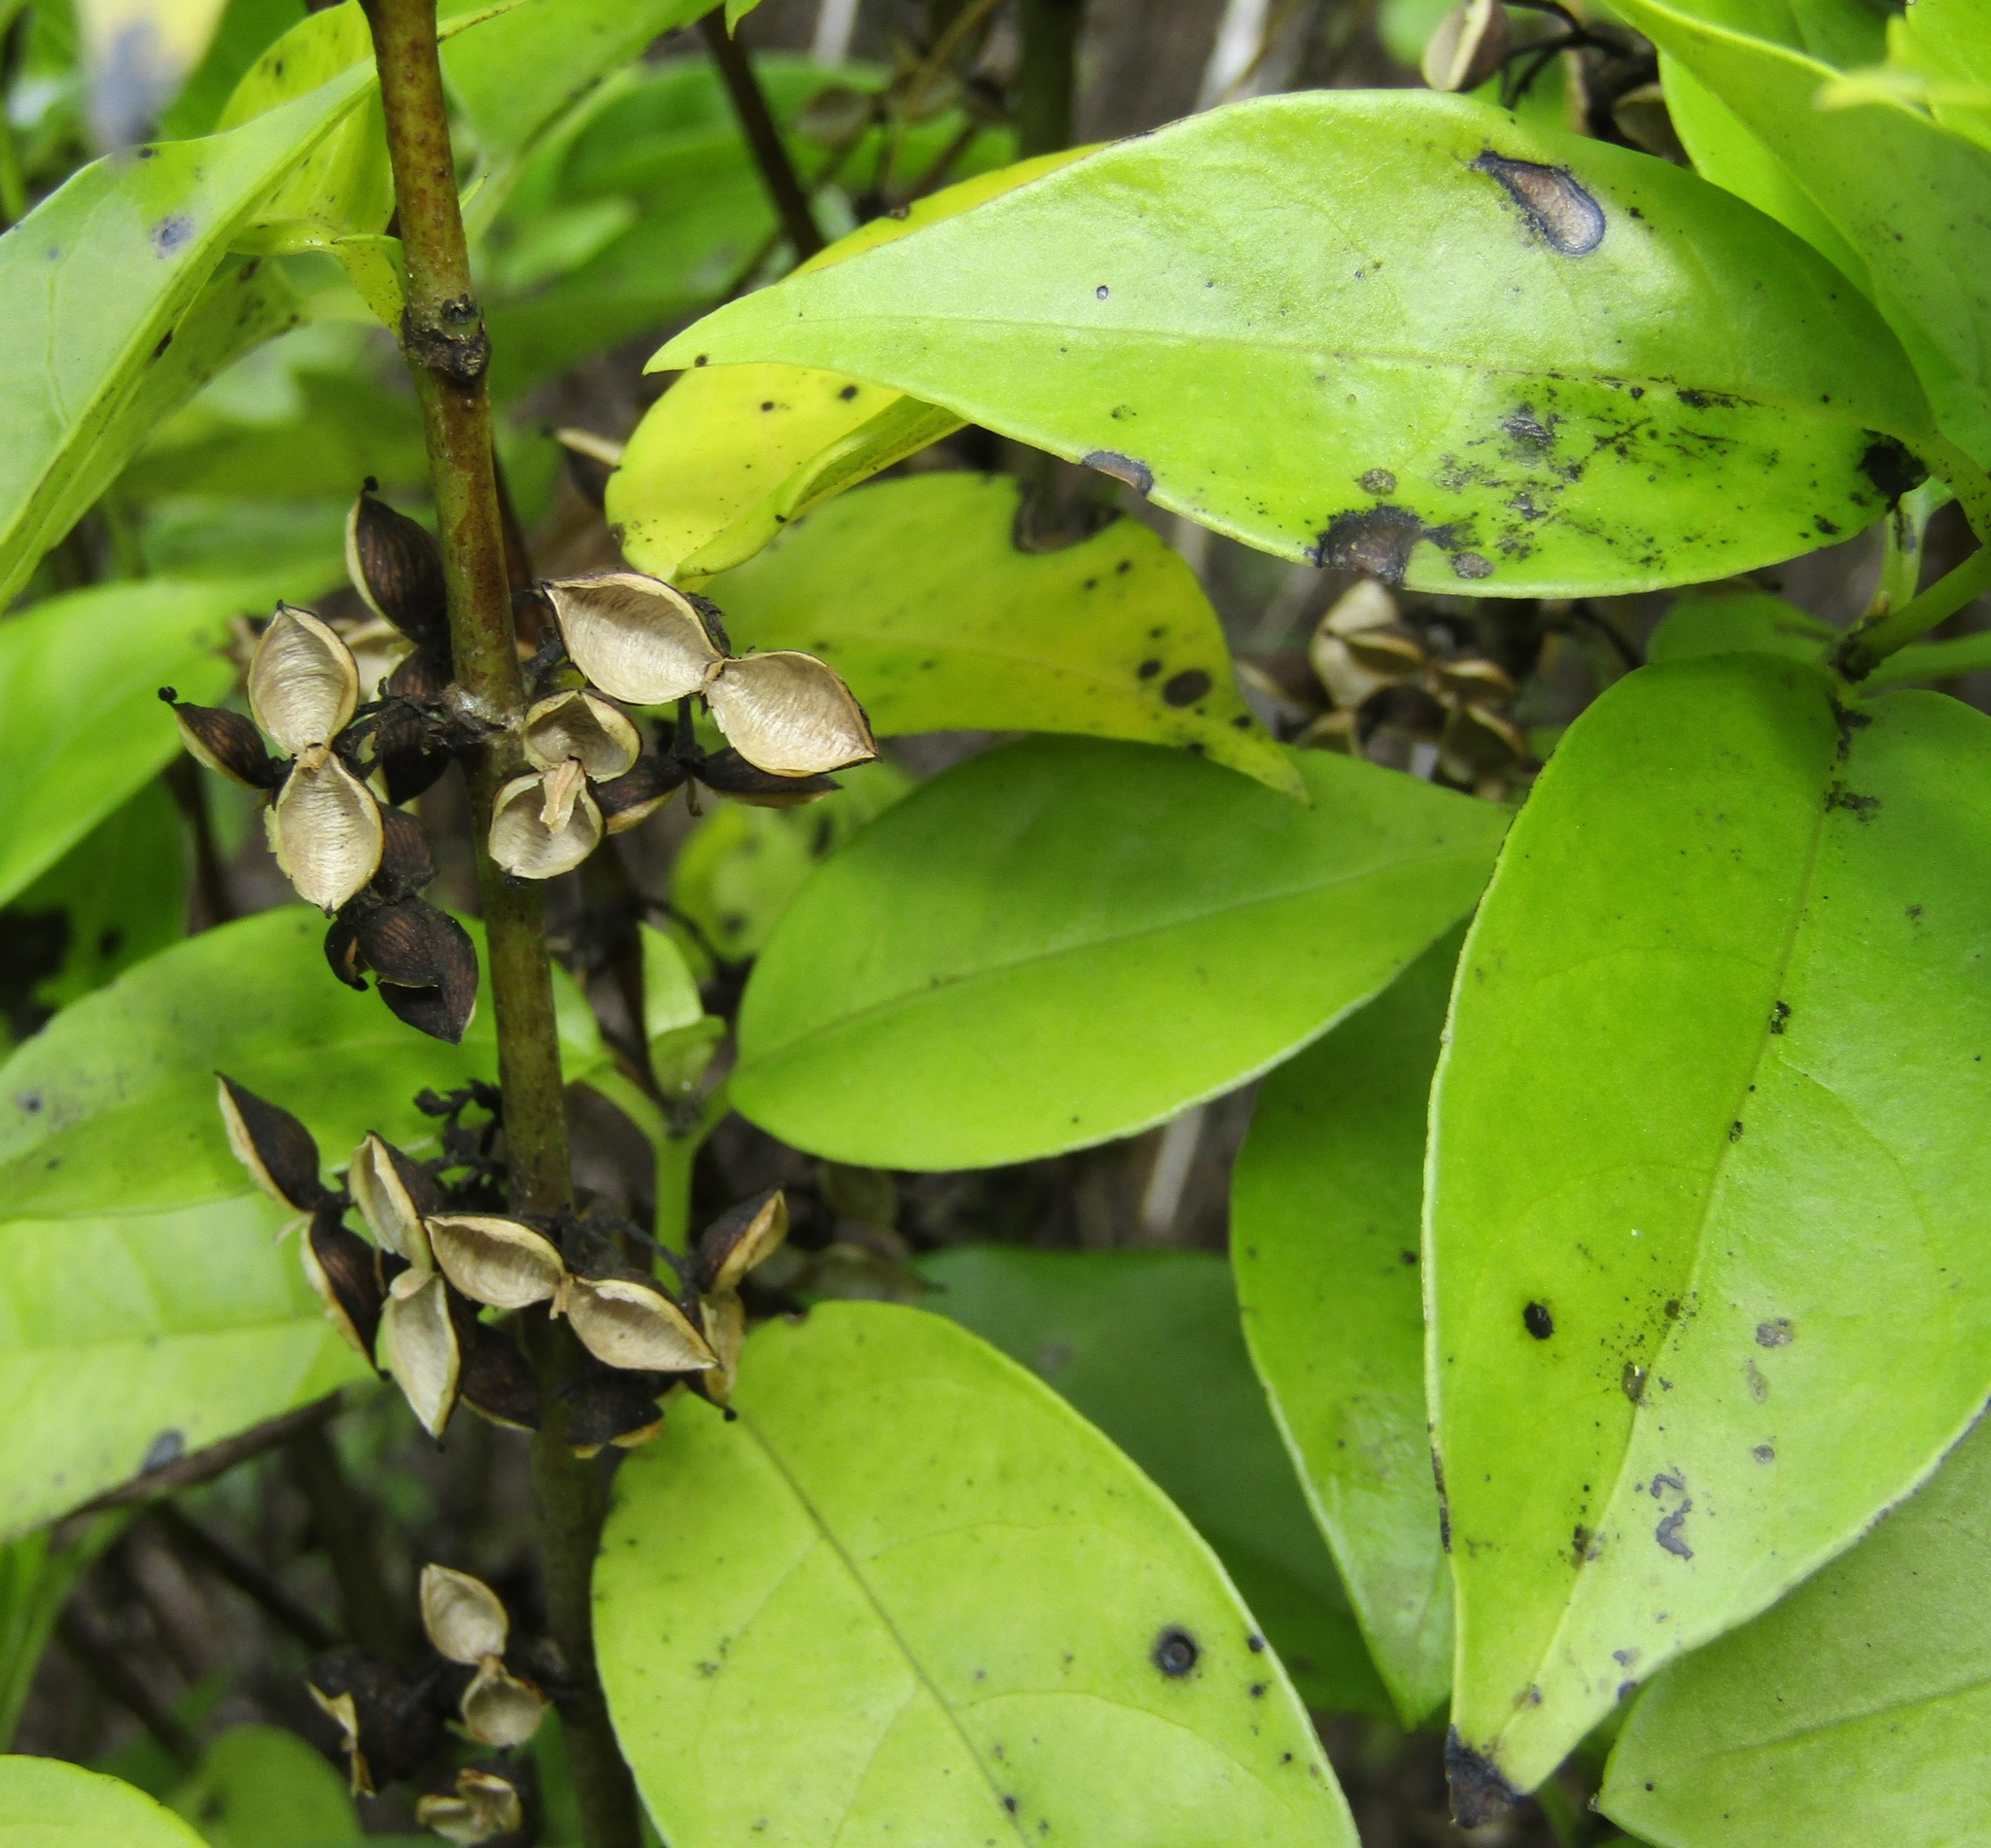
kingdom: Plantae
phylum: Tracheophyta
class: Magnoliopsida
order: Gentianales
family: Loganiaceae
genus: Geniostoma
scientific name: Geniostoma ligustrifolium
